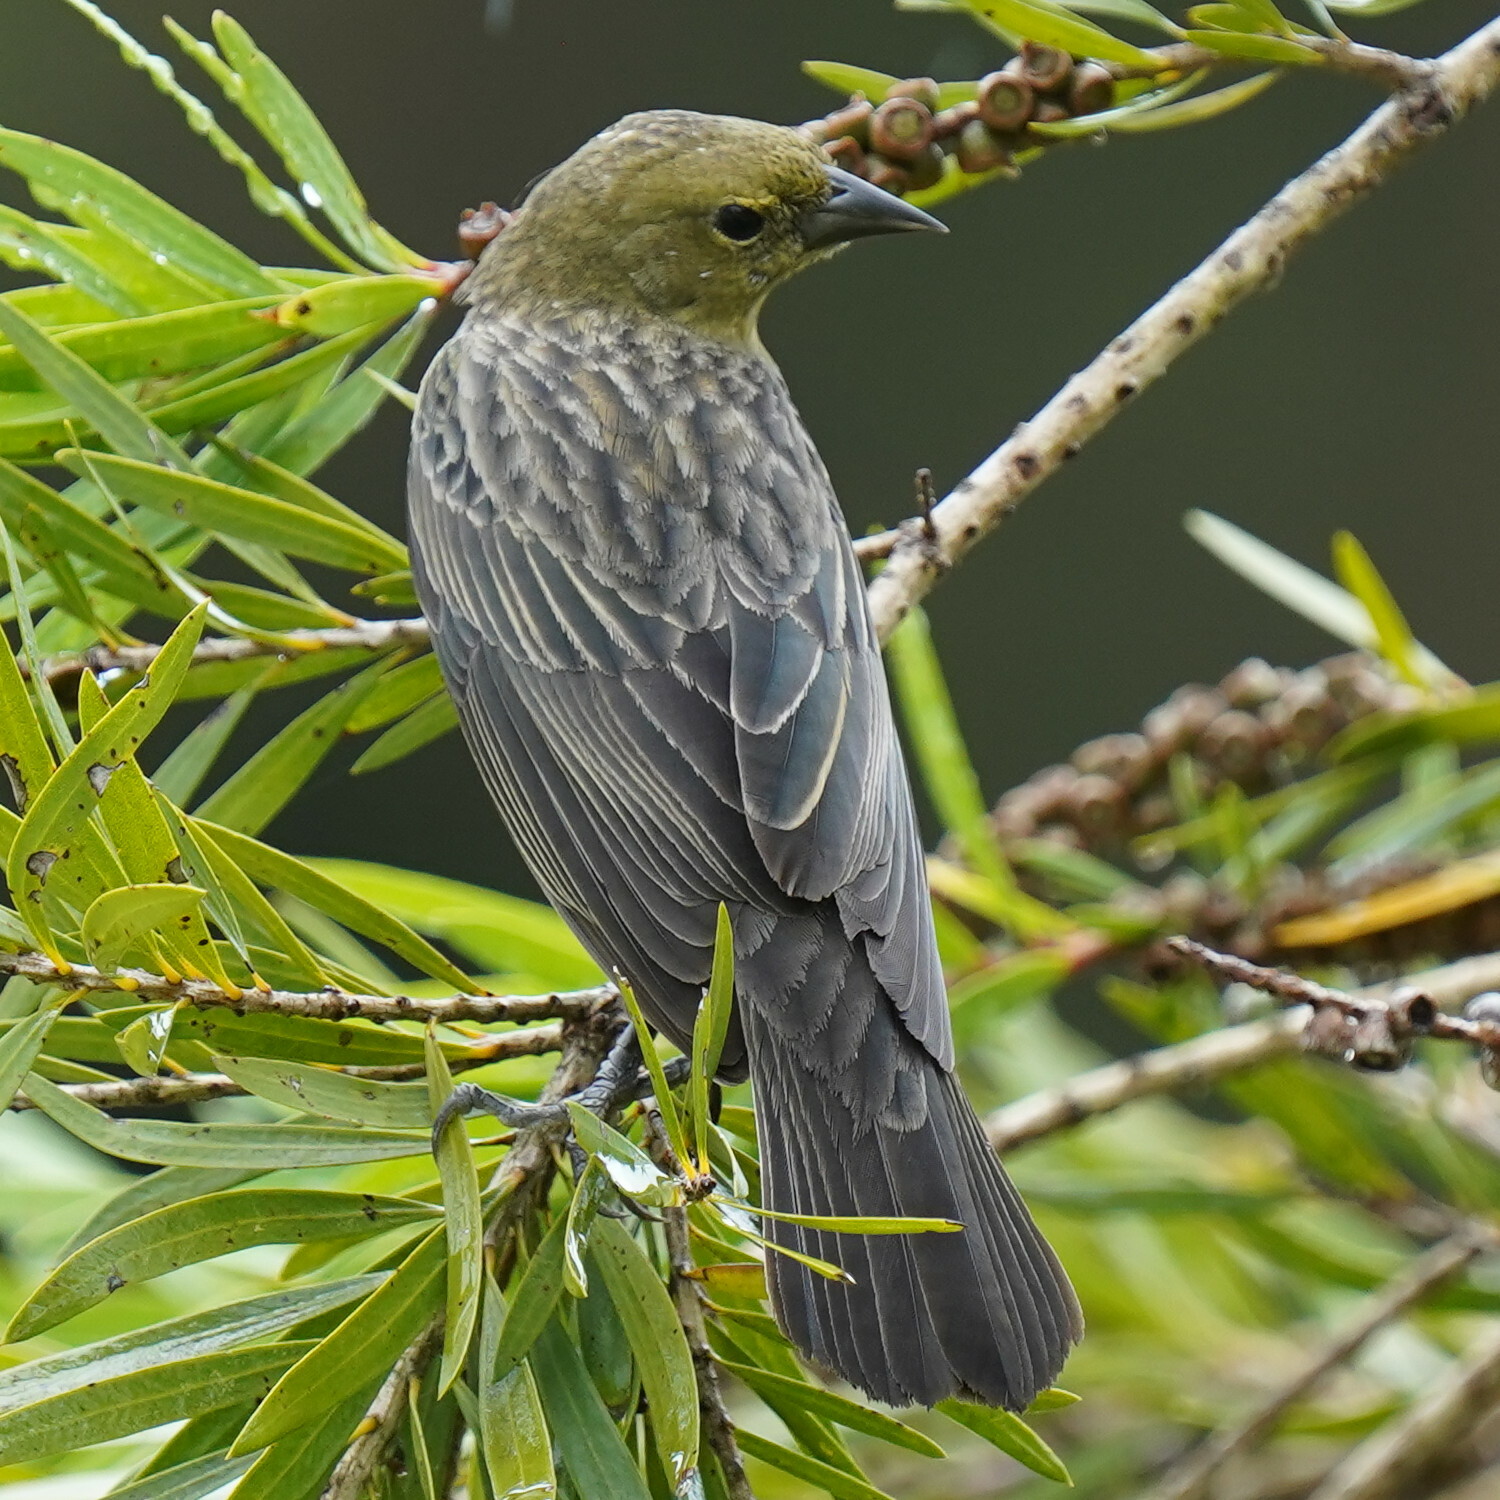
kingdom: Animalia
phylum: Chordata
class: Aves
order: Passeriformes
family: Icteridae
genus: Chrysomus
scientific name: Chrysomus ruficapillus
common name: Chestnut-capped blackbird
